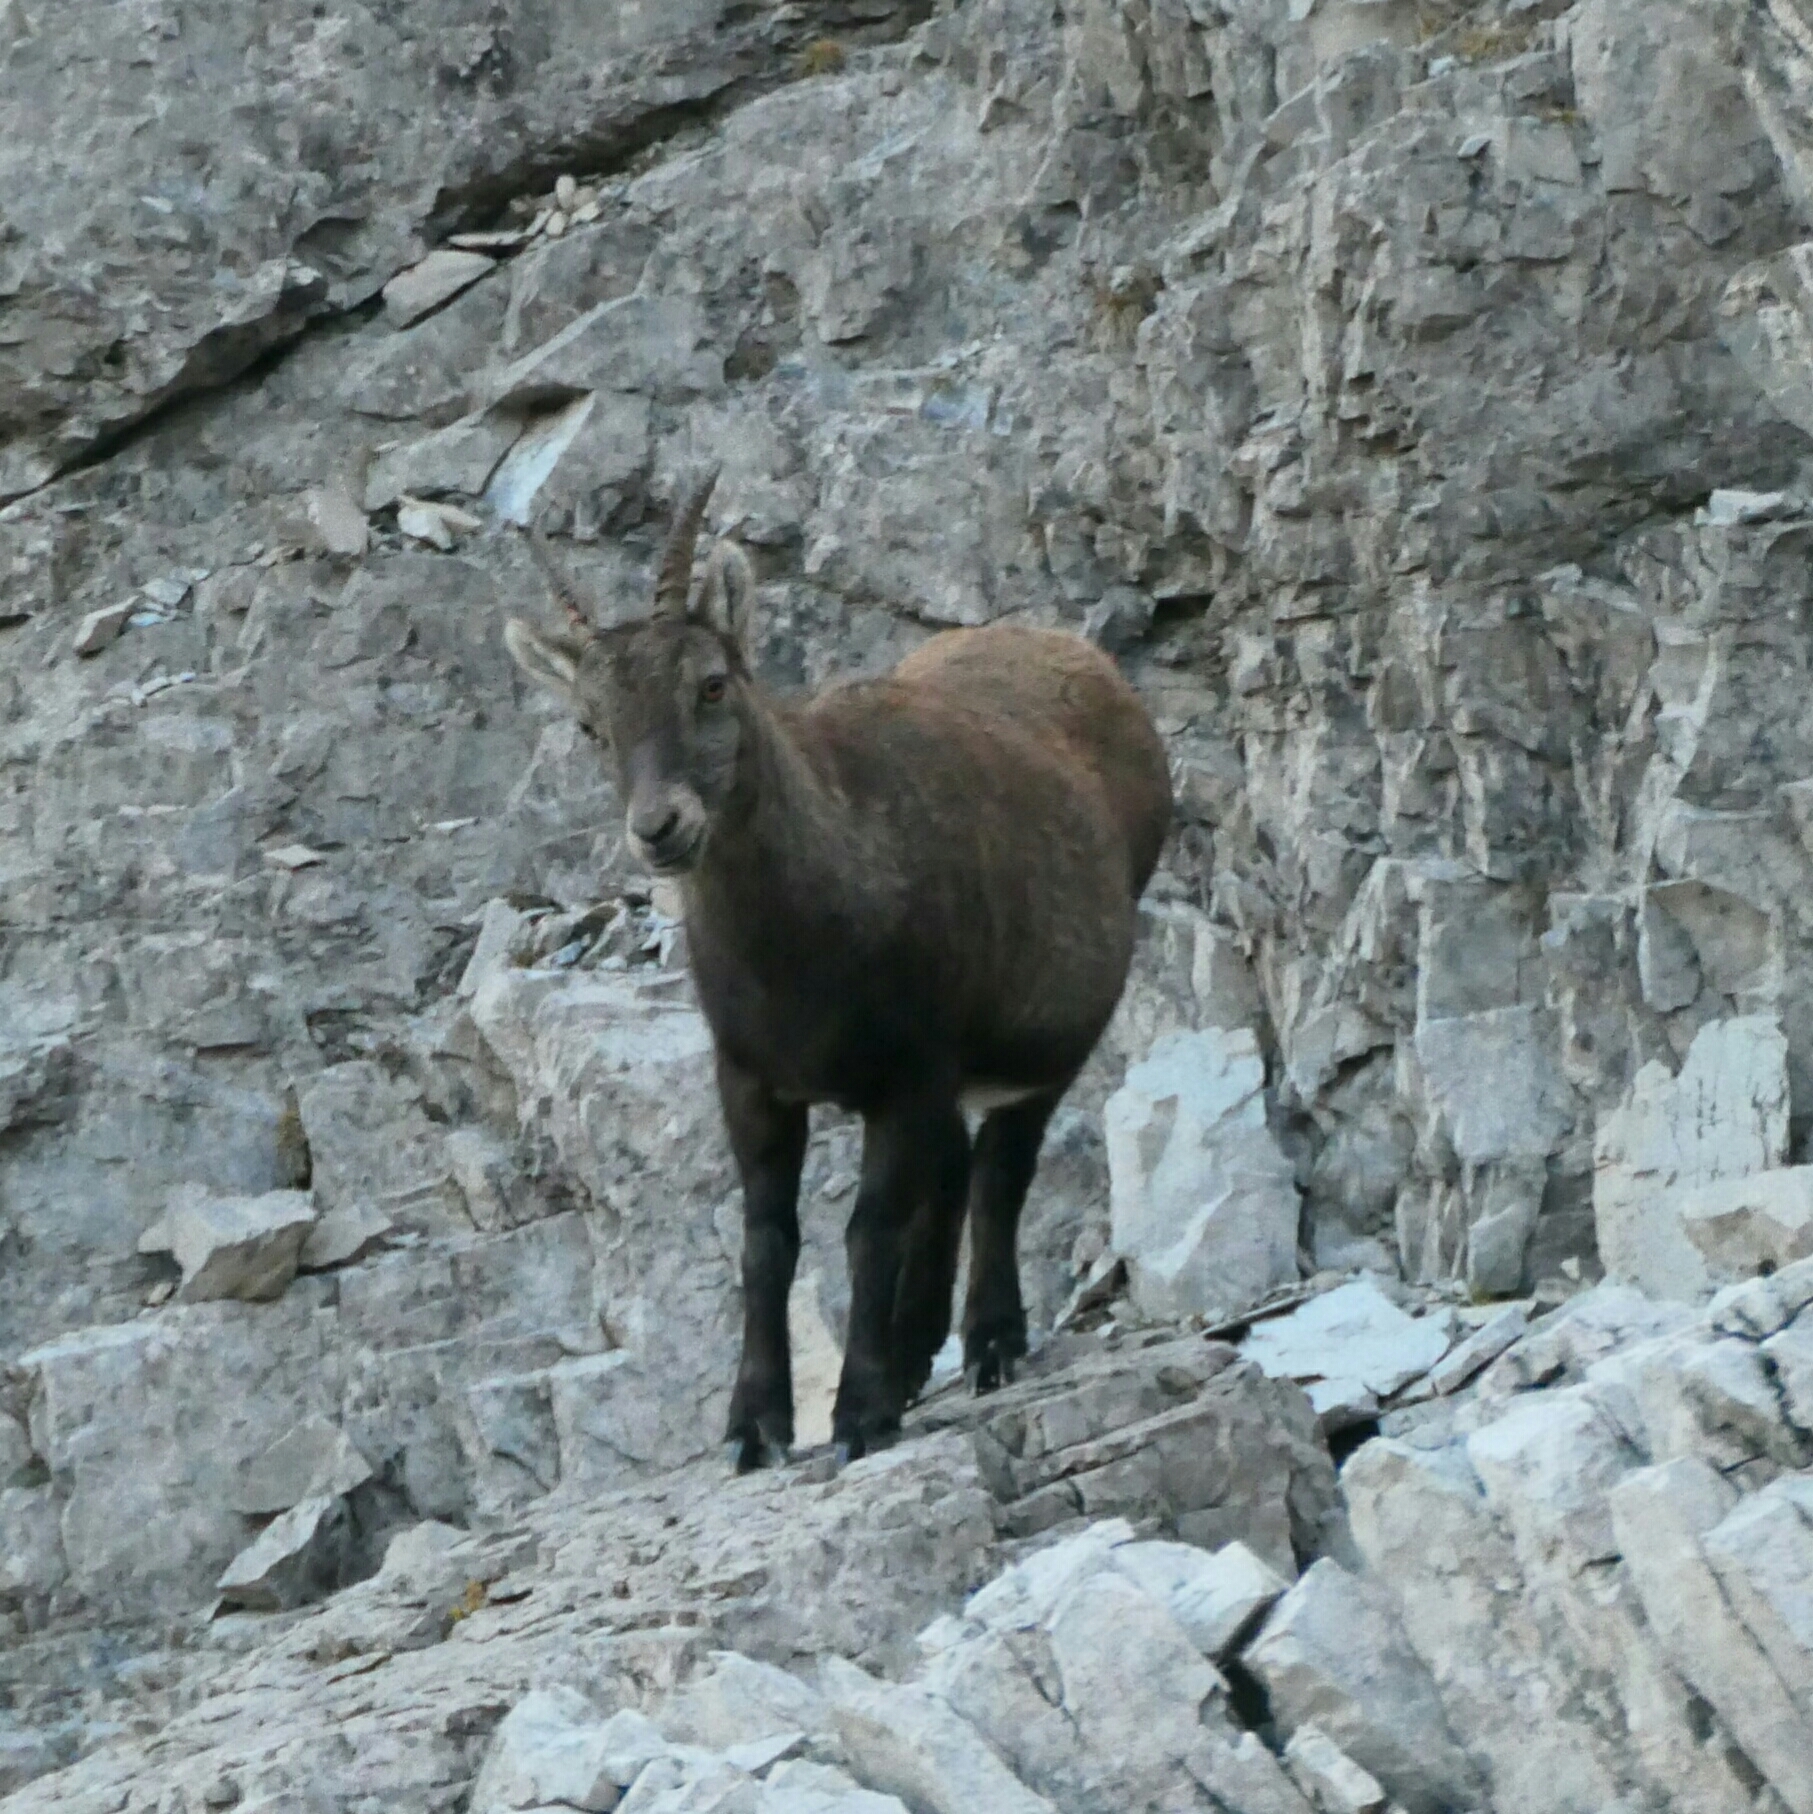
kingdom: Animalia
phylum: Chordata
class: Mammalia
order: Artiodactyla
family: Bovidae
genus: Capra
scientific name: Capra ibex
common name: Alpine ibex
